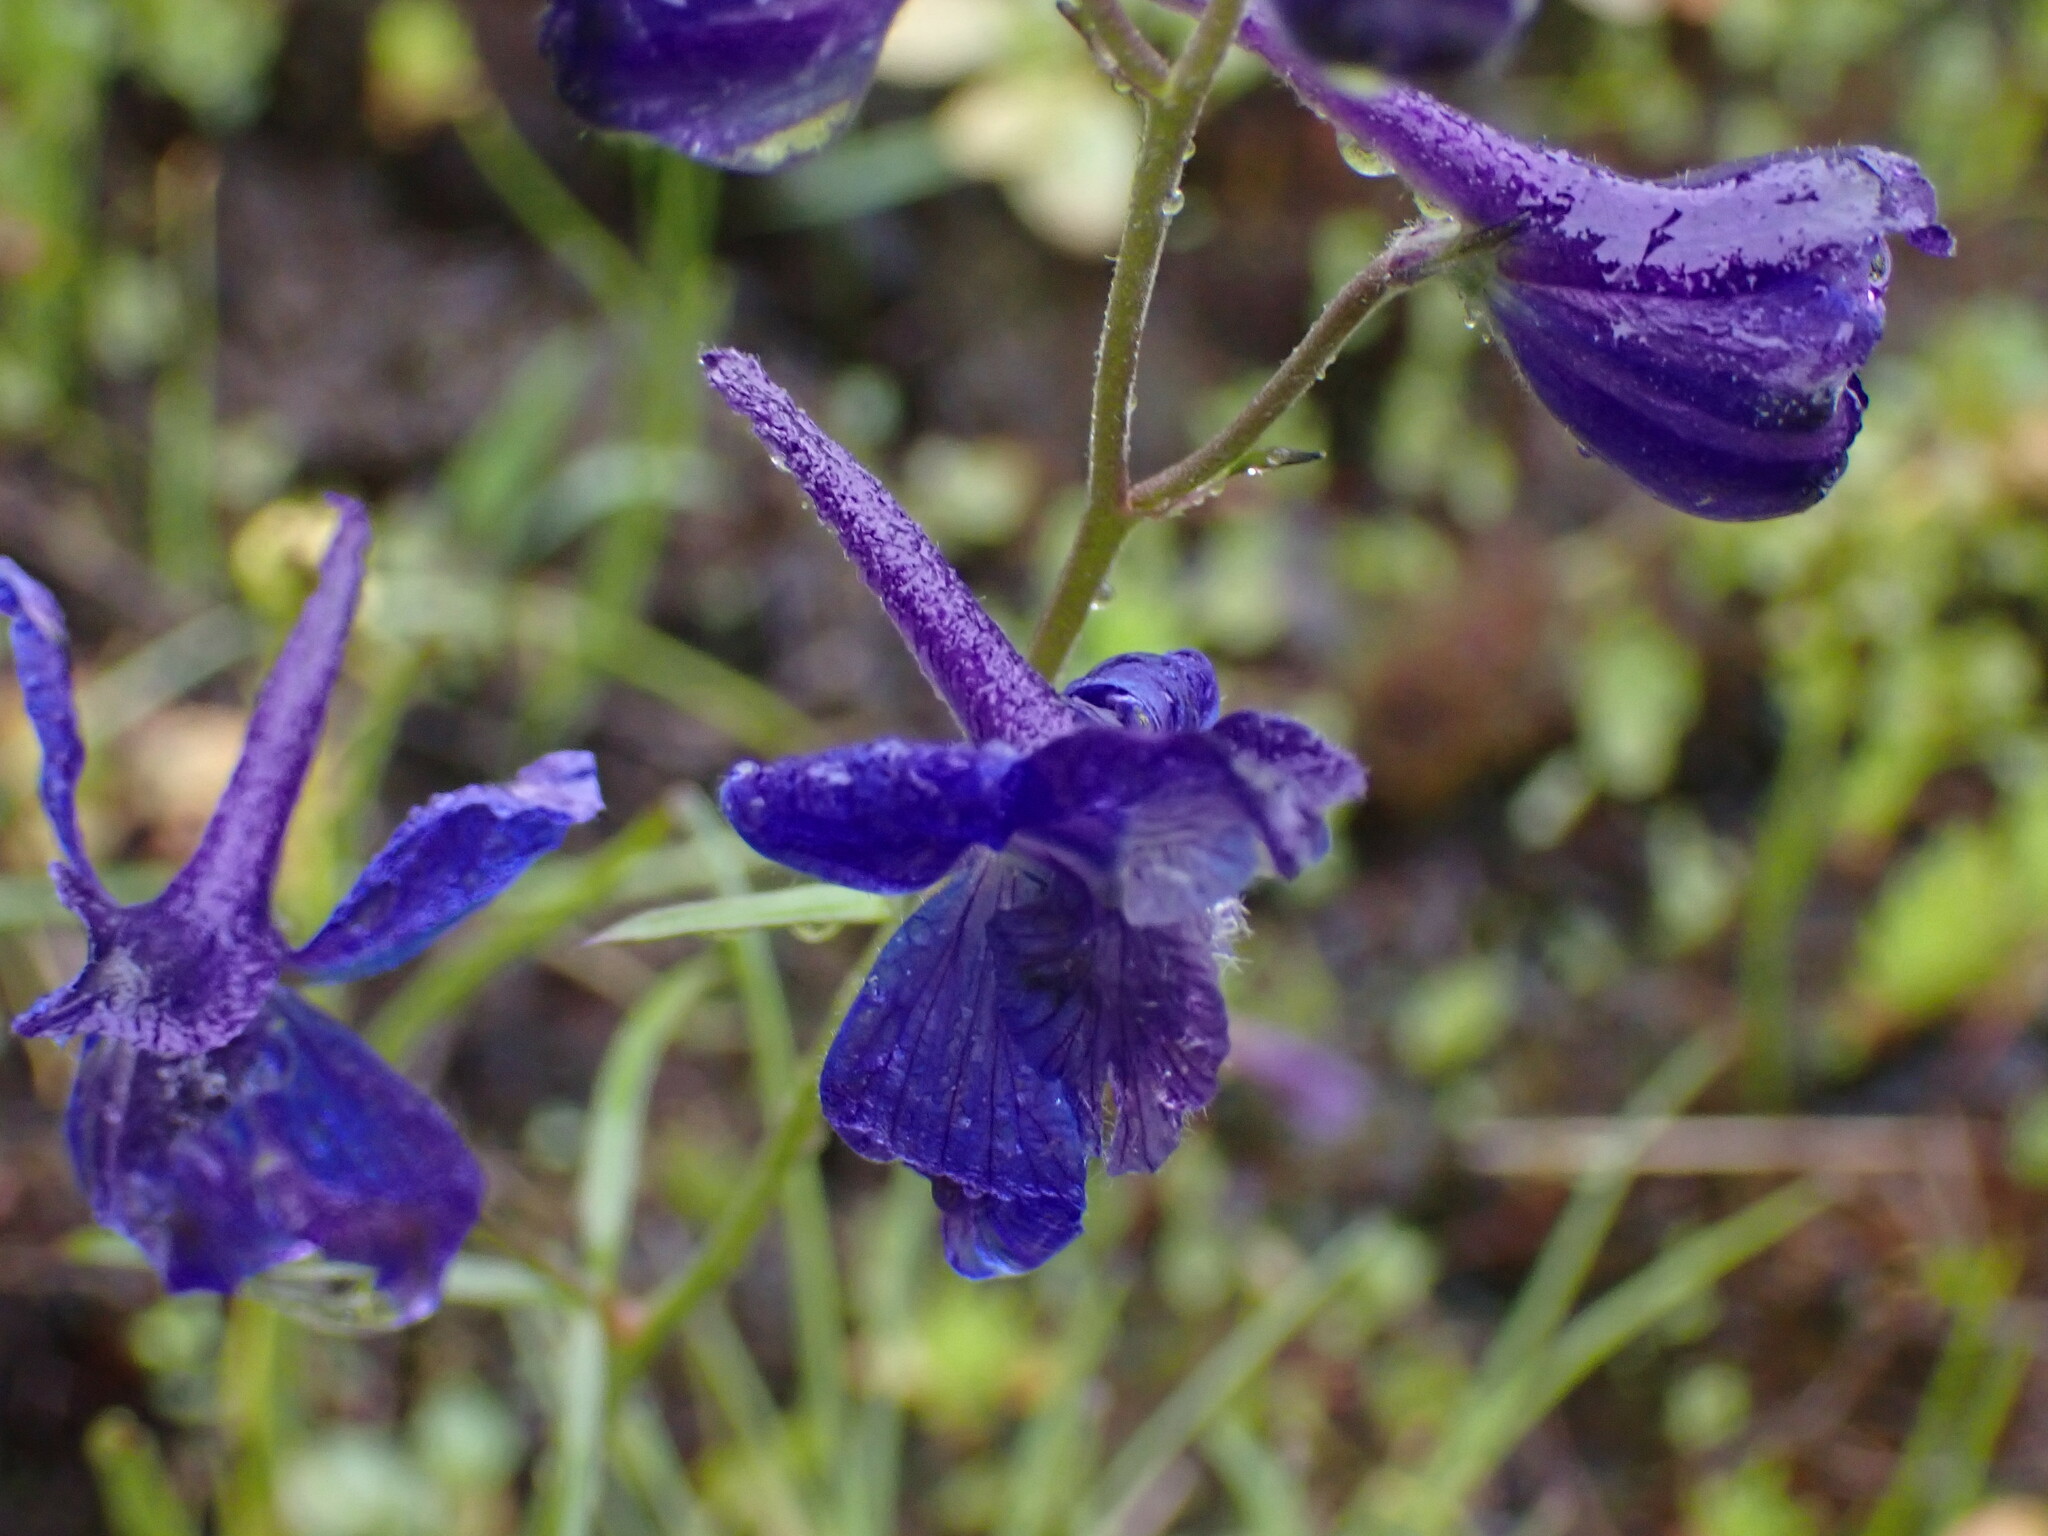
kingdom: Plantae
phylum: Tracheophyta
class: Magnoliopsida
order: Ranunculales
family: Ranunculaceae
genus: Delphinium
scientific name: Delphinium nuttallianum
